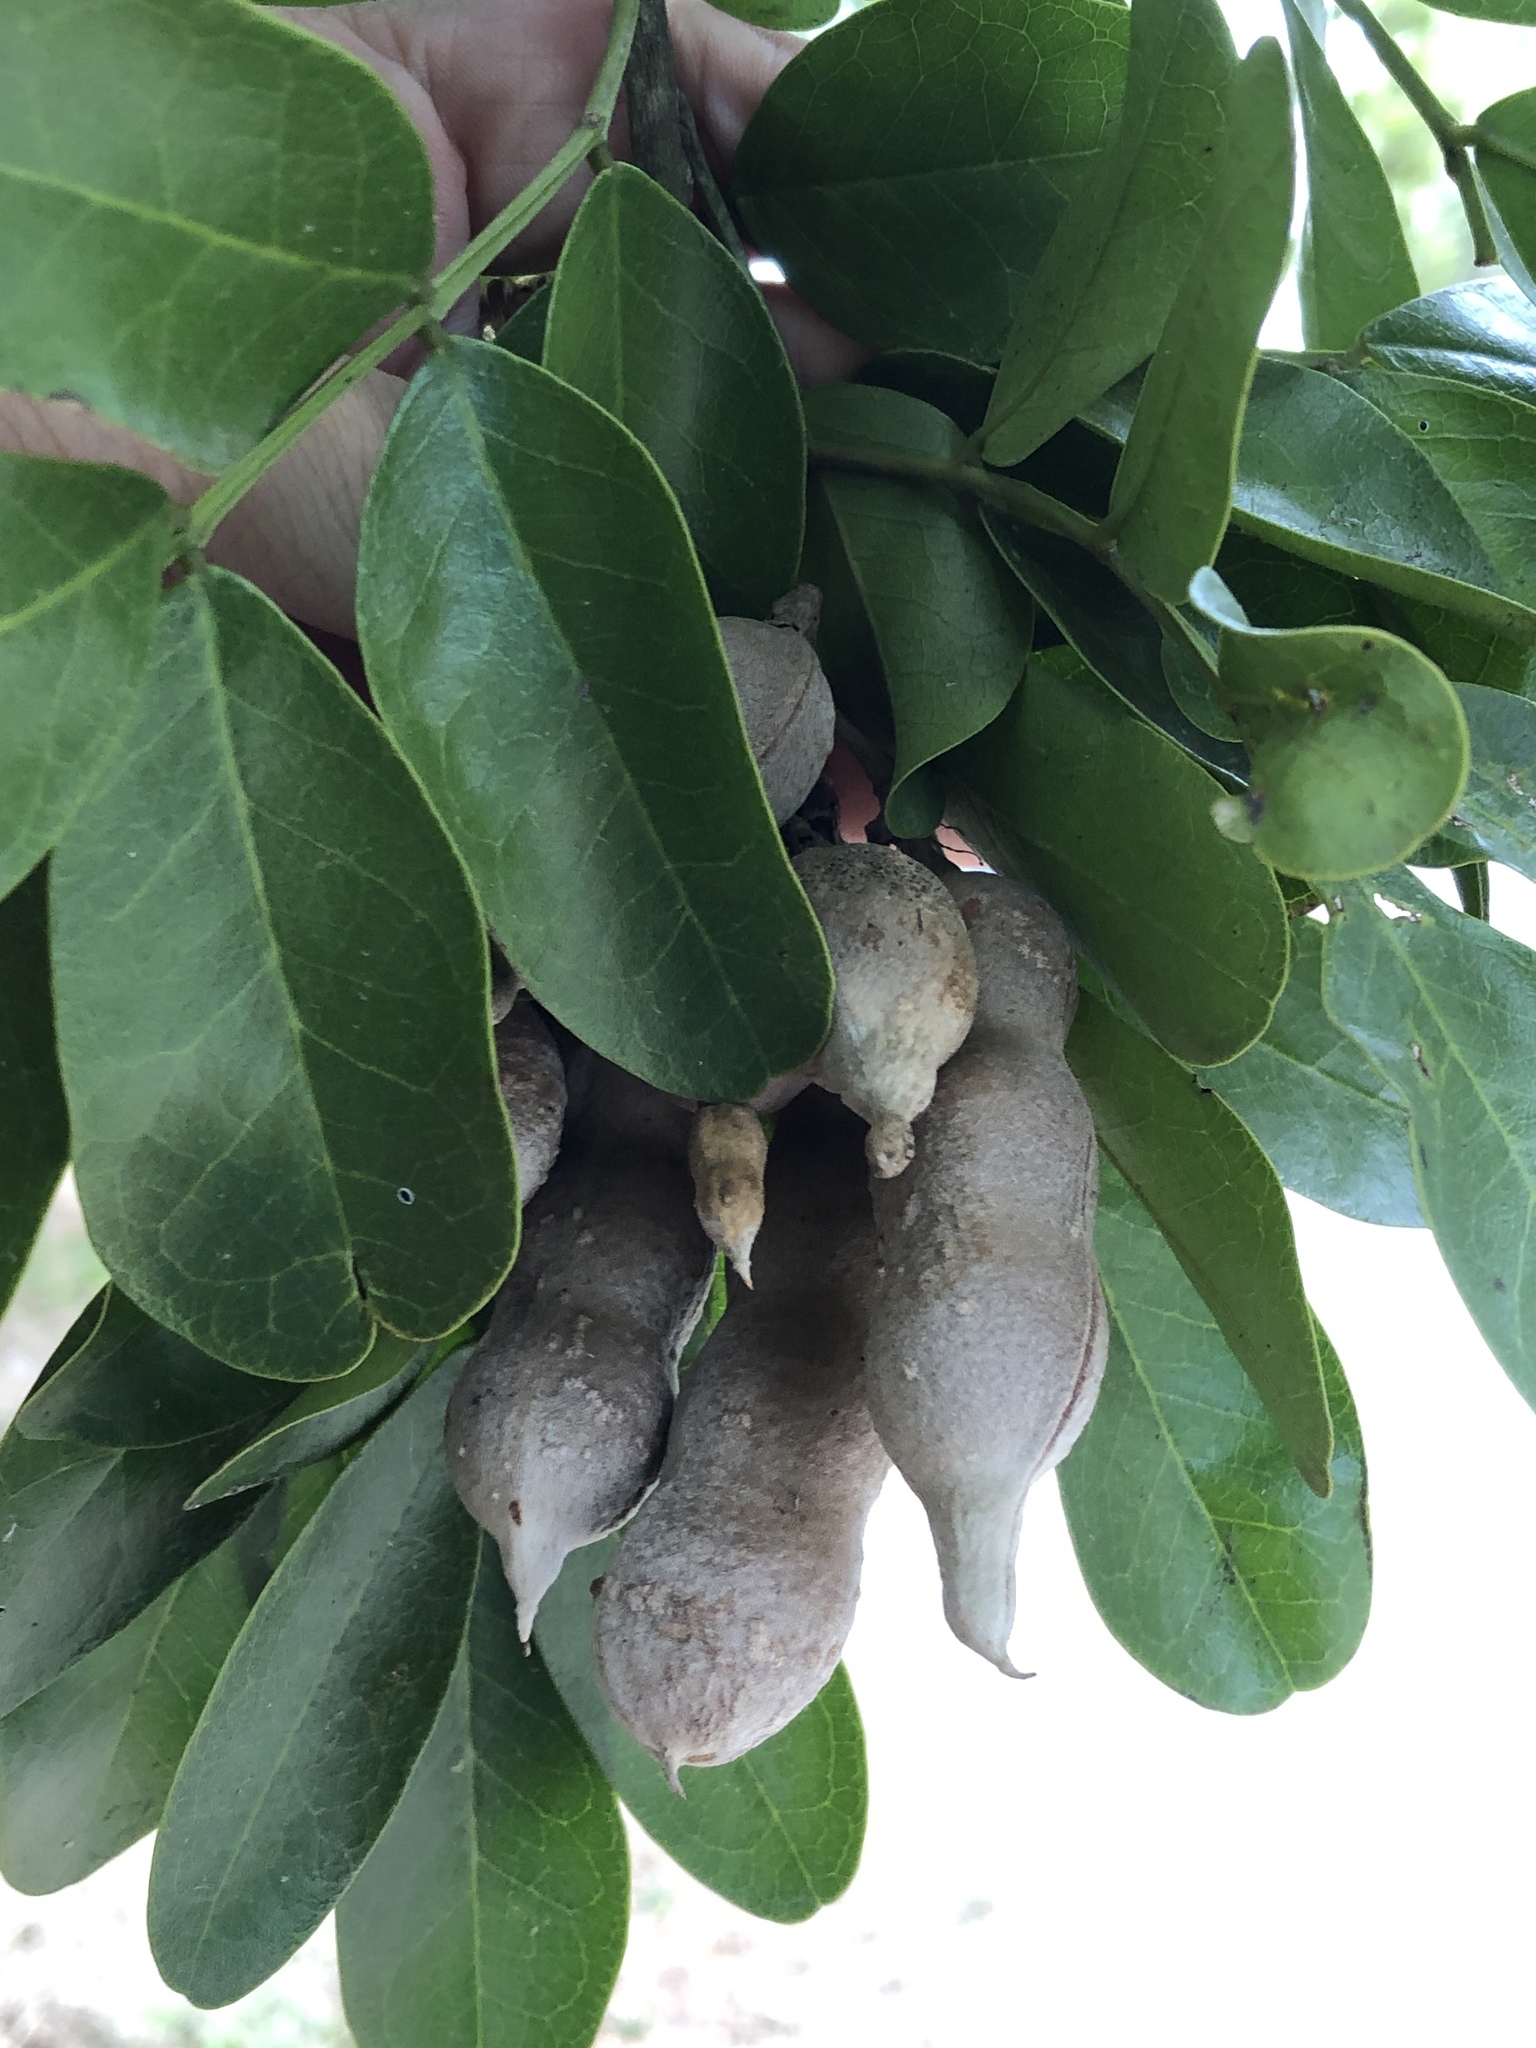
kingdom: Plantae
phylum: Tracheophyta
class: Magnoliopsida
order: Fabales
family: Fabaceae
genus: Dermatophyllum
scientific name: Dermatophyllum secundiflorum
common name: Texas-mountain-laurel
